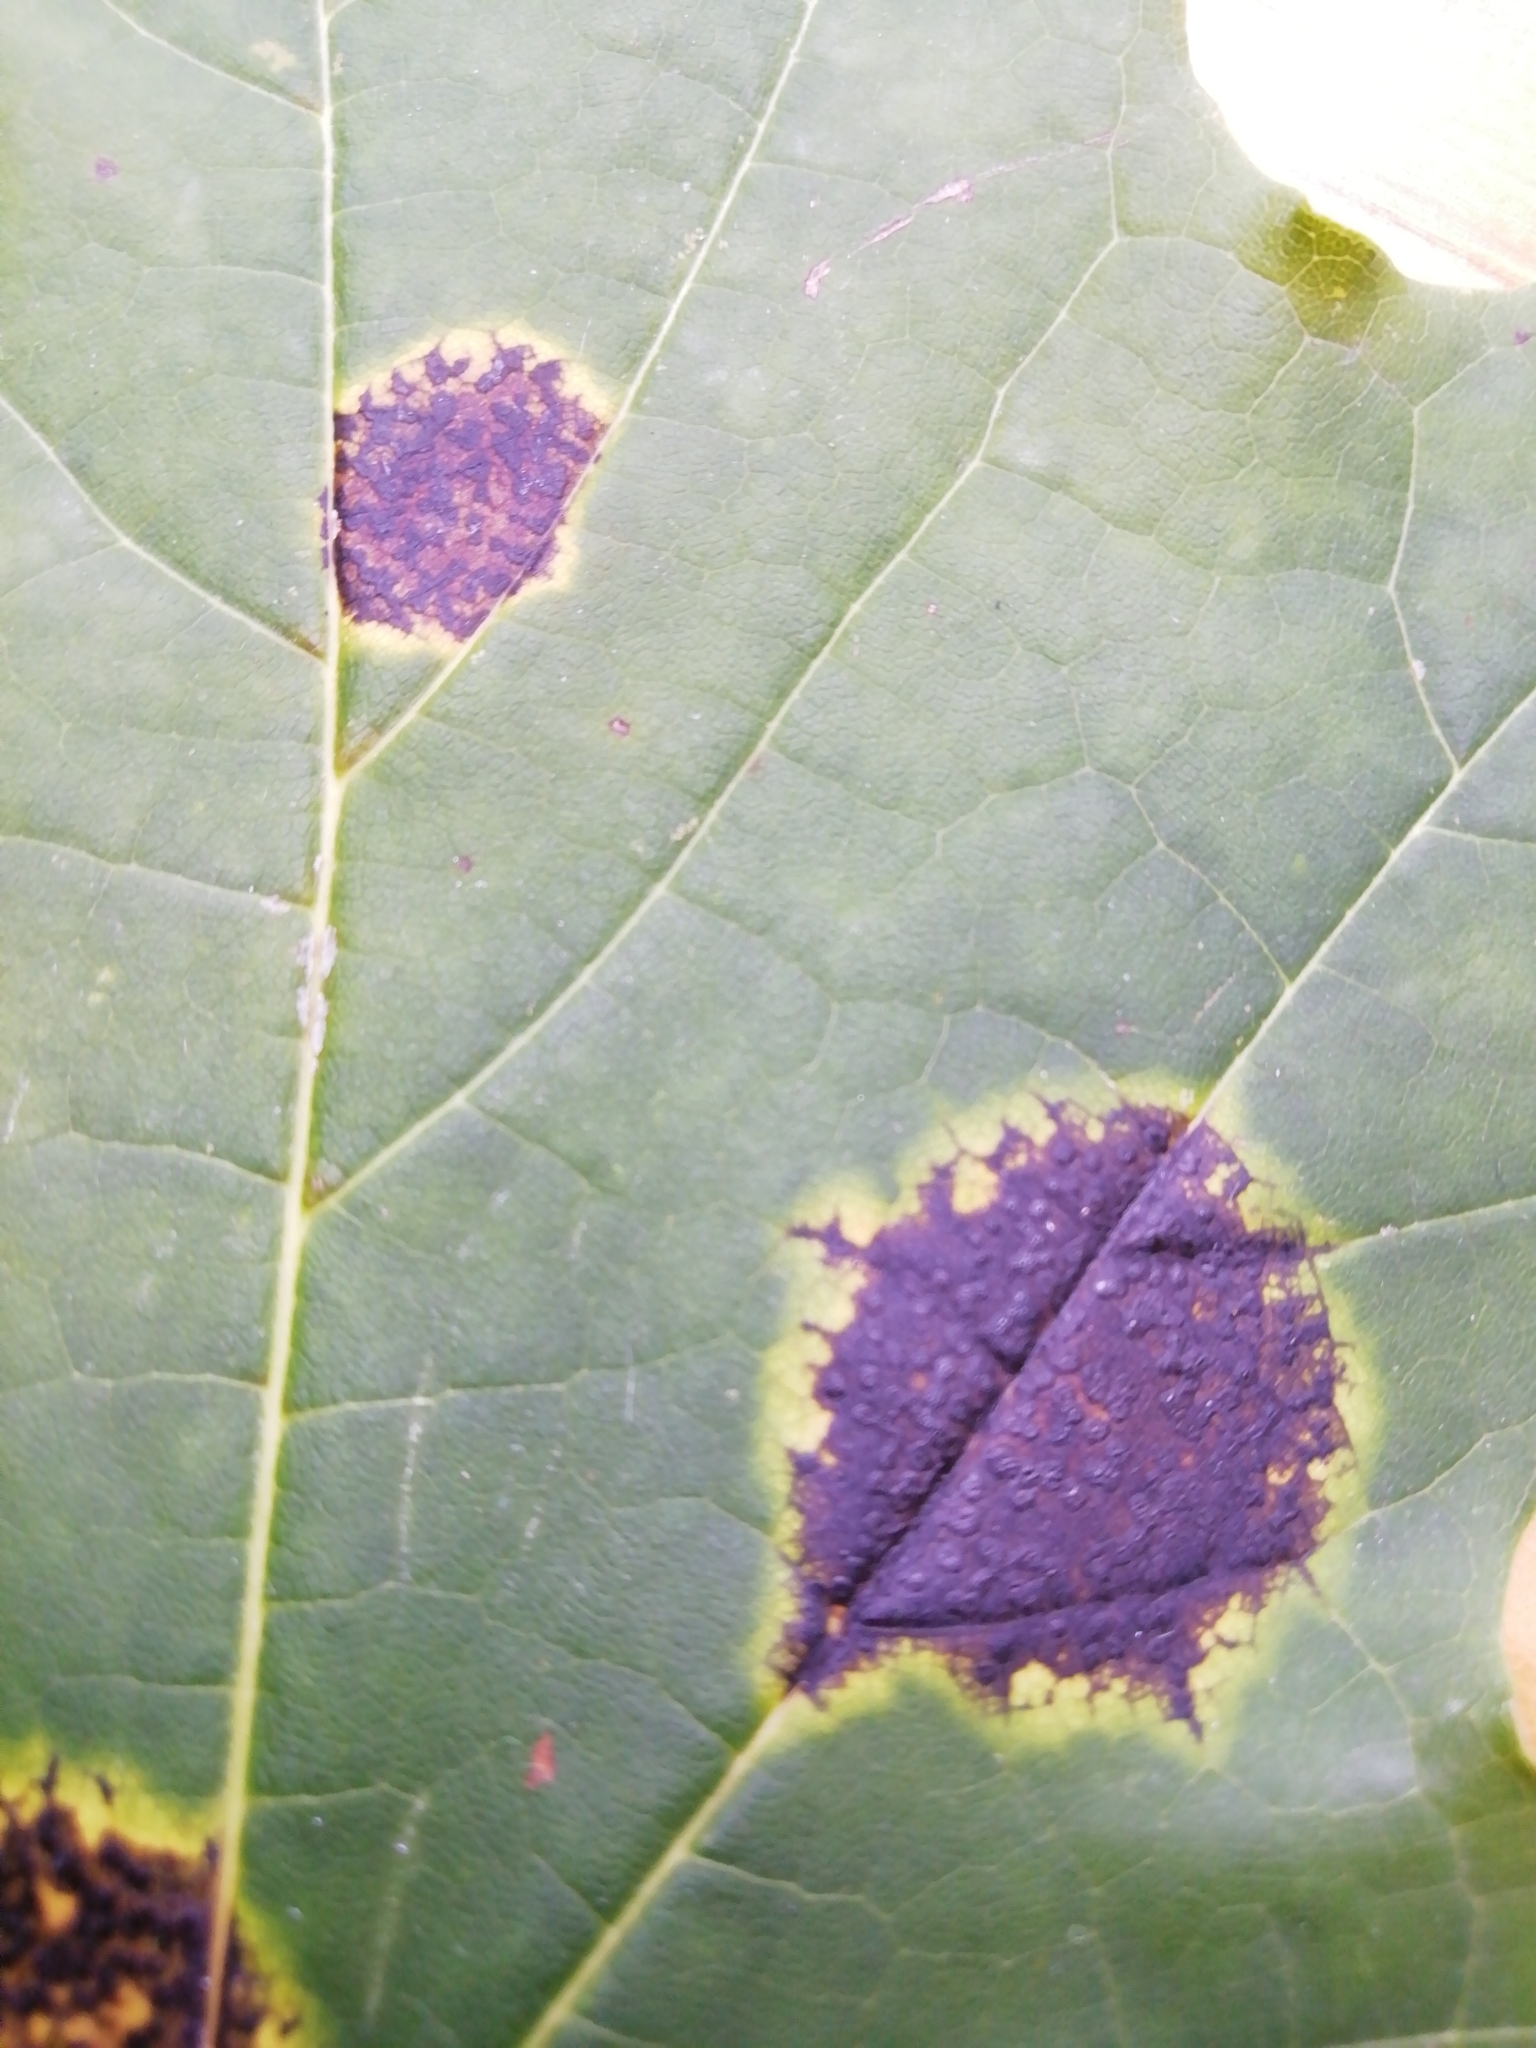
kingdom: Fungi
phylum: Ascomycota
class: Leotiomycetes
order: Rhytismatales
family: Rhytismataceae
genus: Rhytisma
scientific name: Rhytisma acerinum
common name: European tar spot
